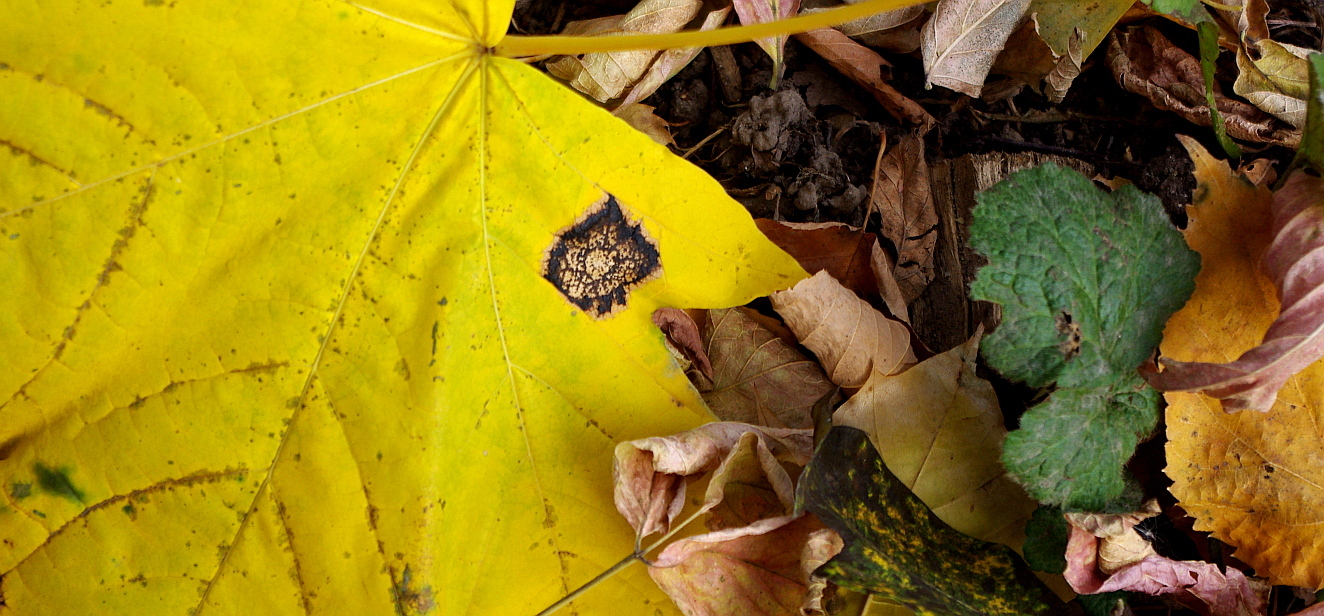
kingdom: Fungi
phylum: Ascomycota
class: Leotiomycetes
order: Rhytismatales
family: Rhytismataceae
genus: Rhytisma
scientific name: Rhytisma acerinum
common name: European tar spot
